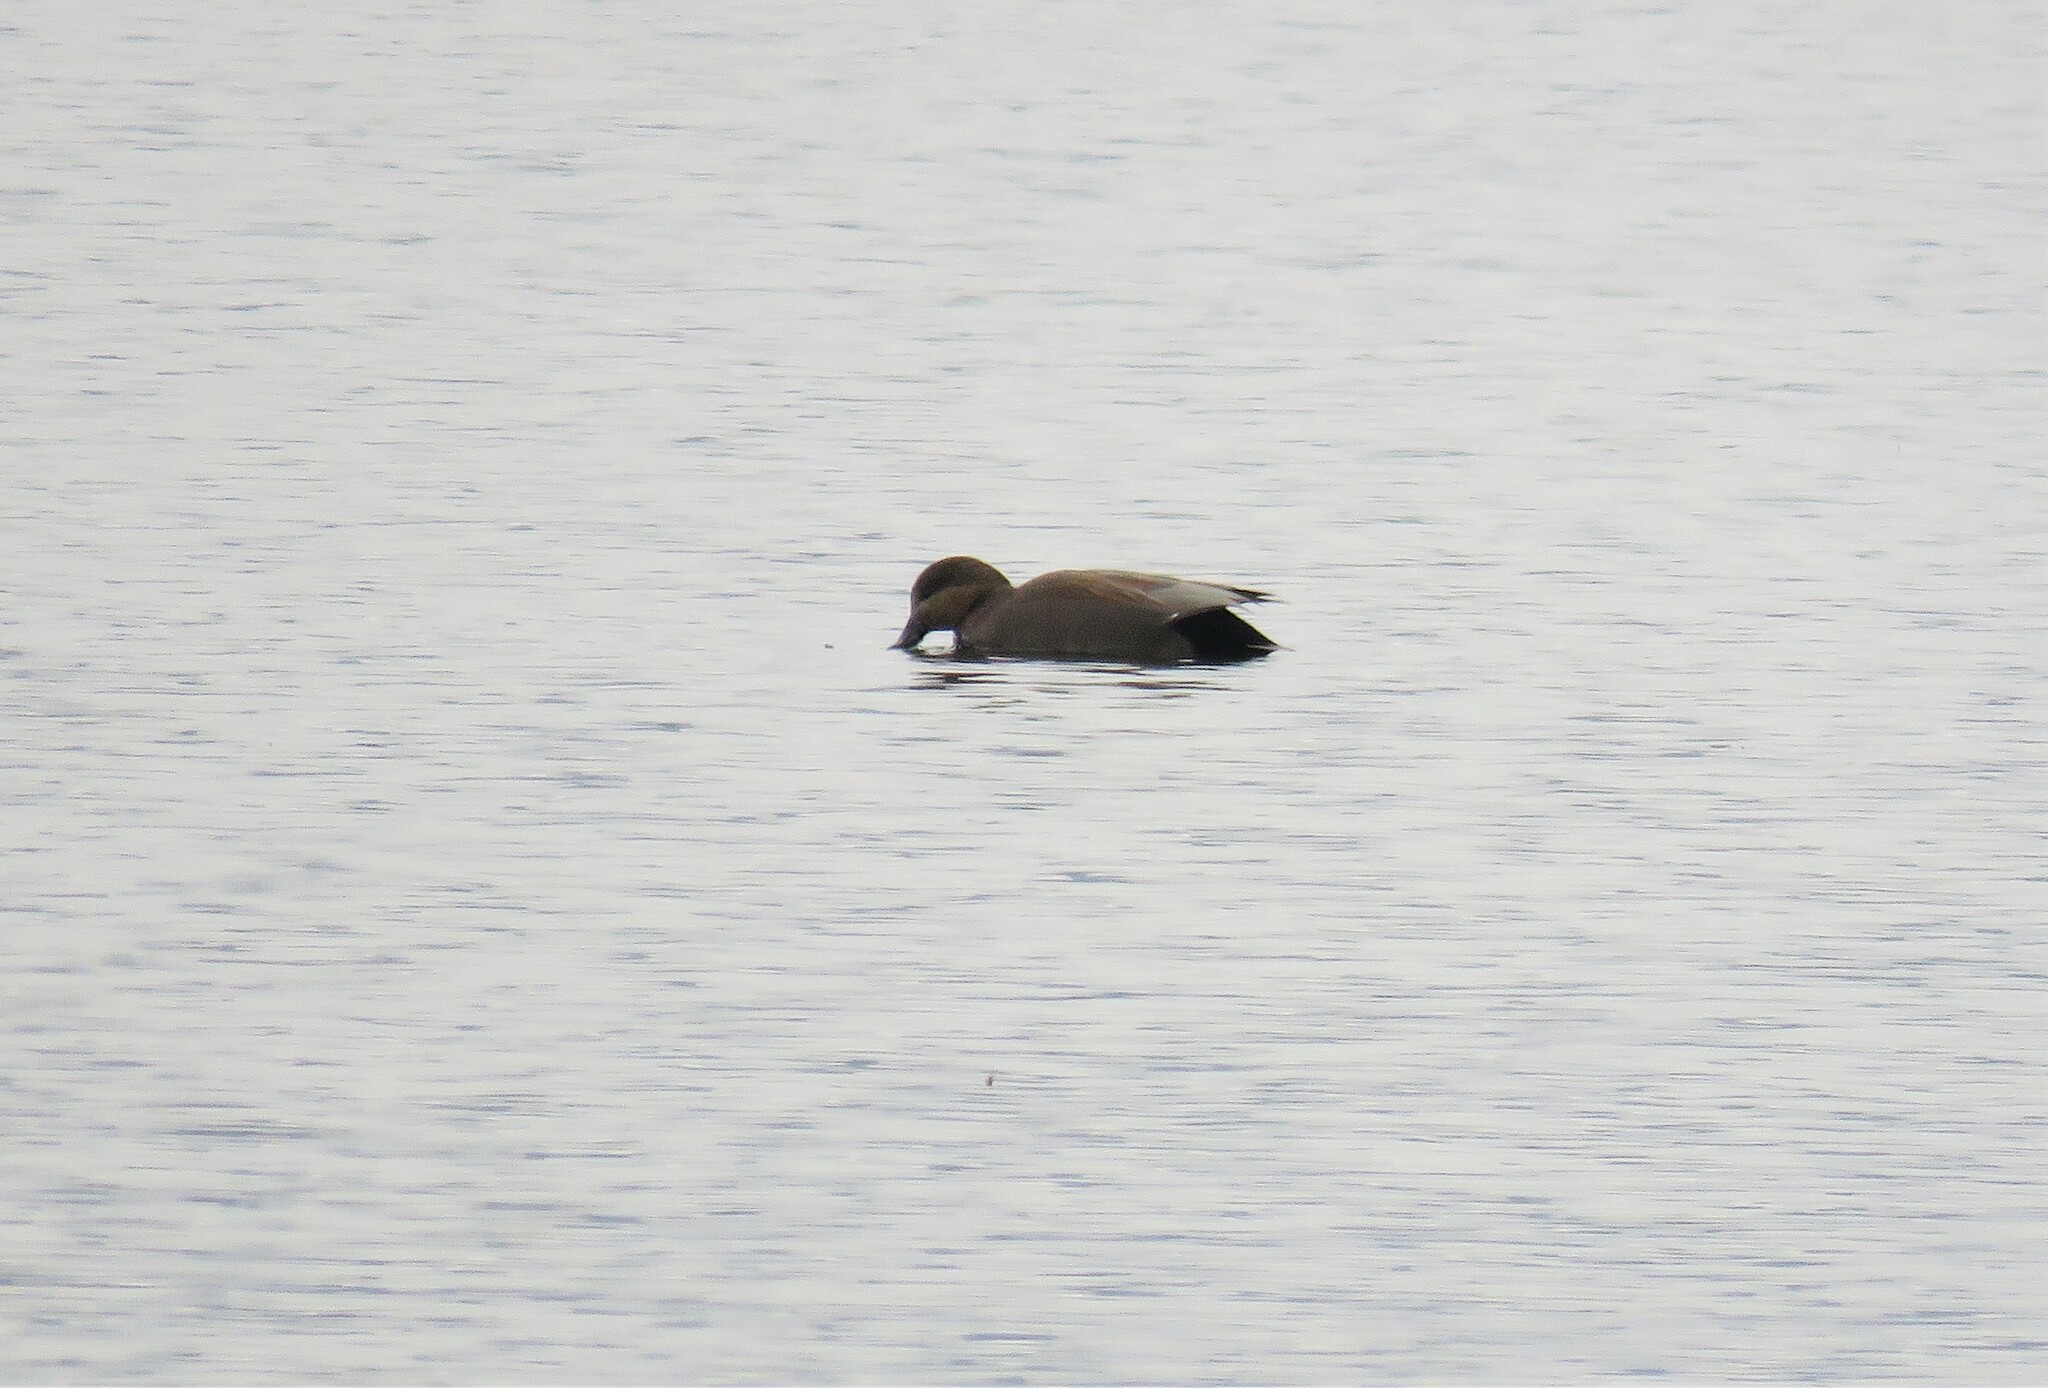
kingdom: Animalia
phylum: Chordata
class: Aves
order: Anseriformes
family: Anatidae
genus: Mareca
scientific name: Mareca strepera
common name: Gadwall
